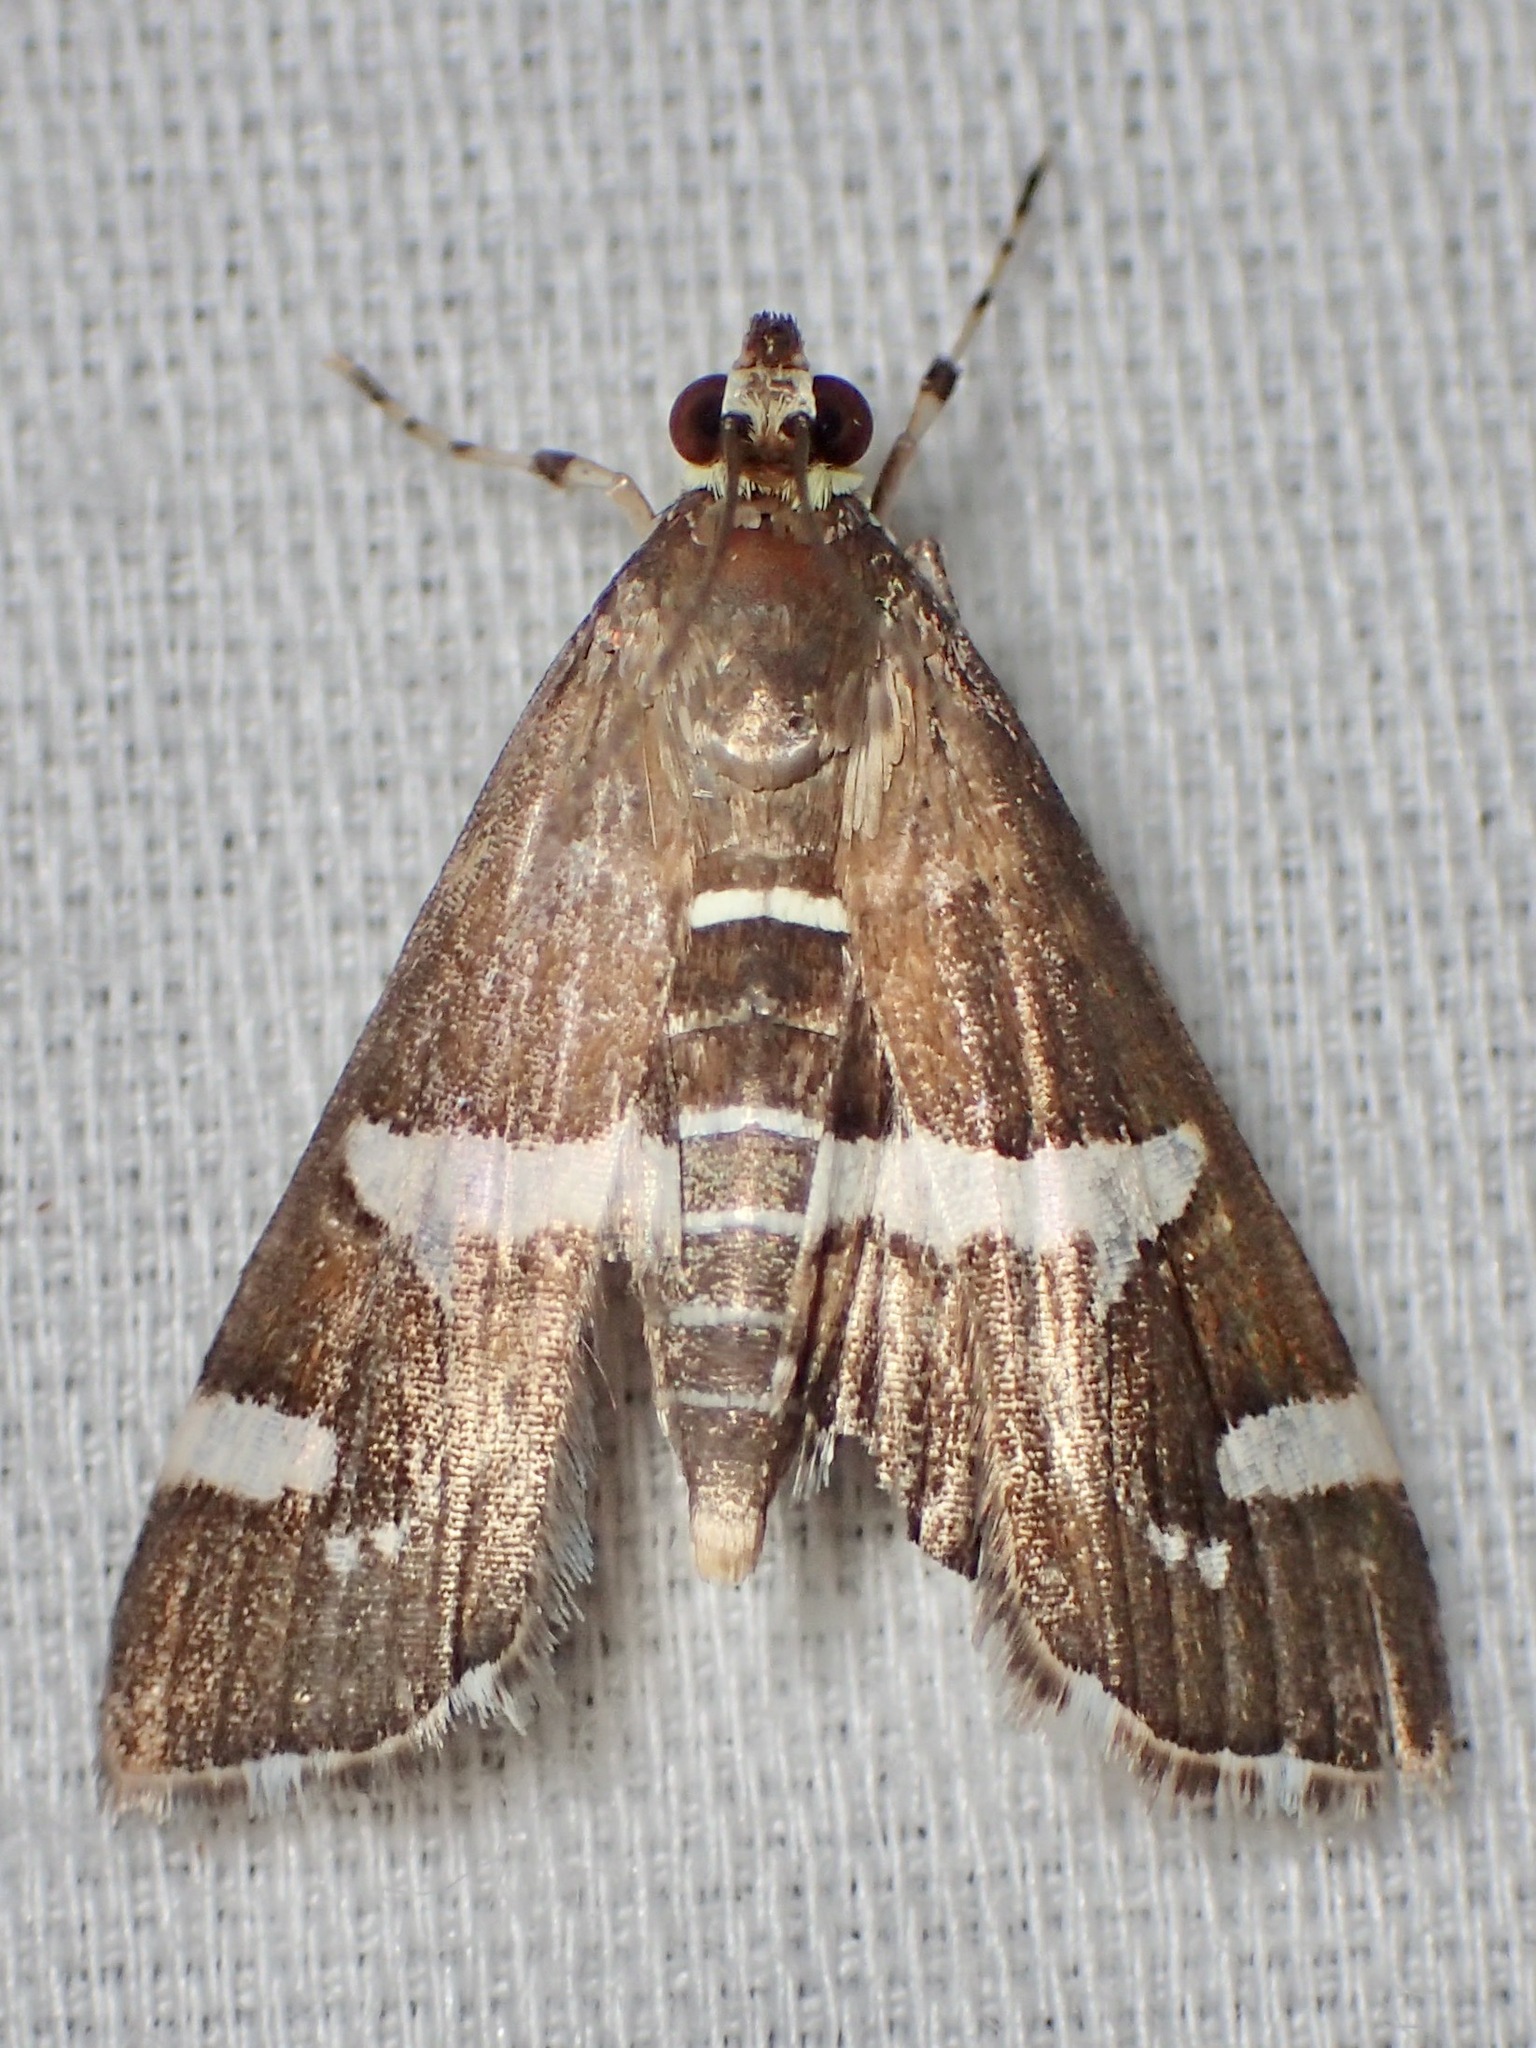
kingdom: Animalia
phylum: Arthropoda
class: Insecta
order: Lepidoptera
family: Crambidae
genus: Spoladea
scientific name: Spoladea recurvalis
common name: Beet webworm moth
